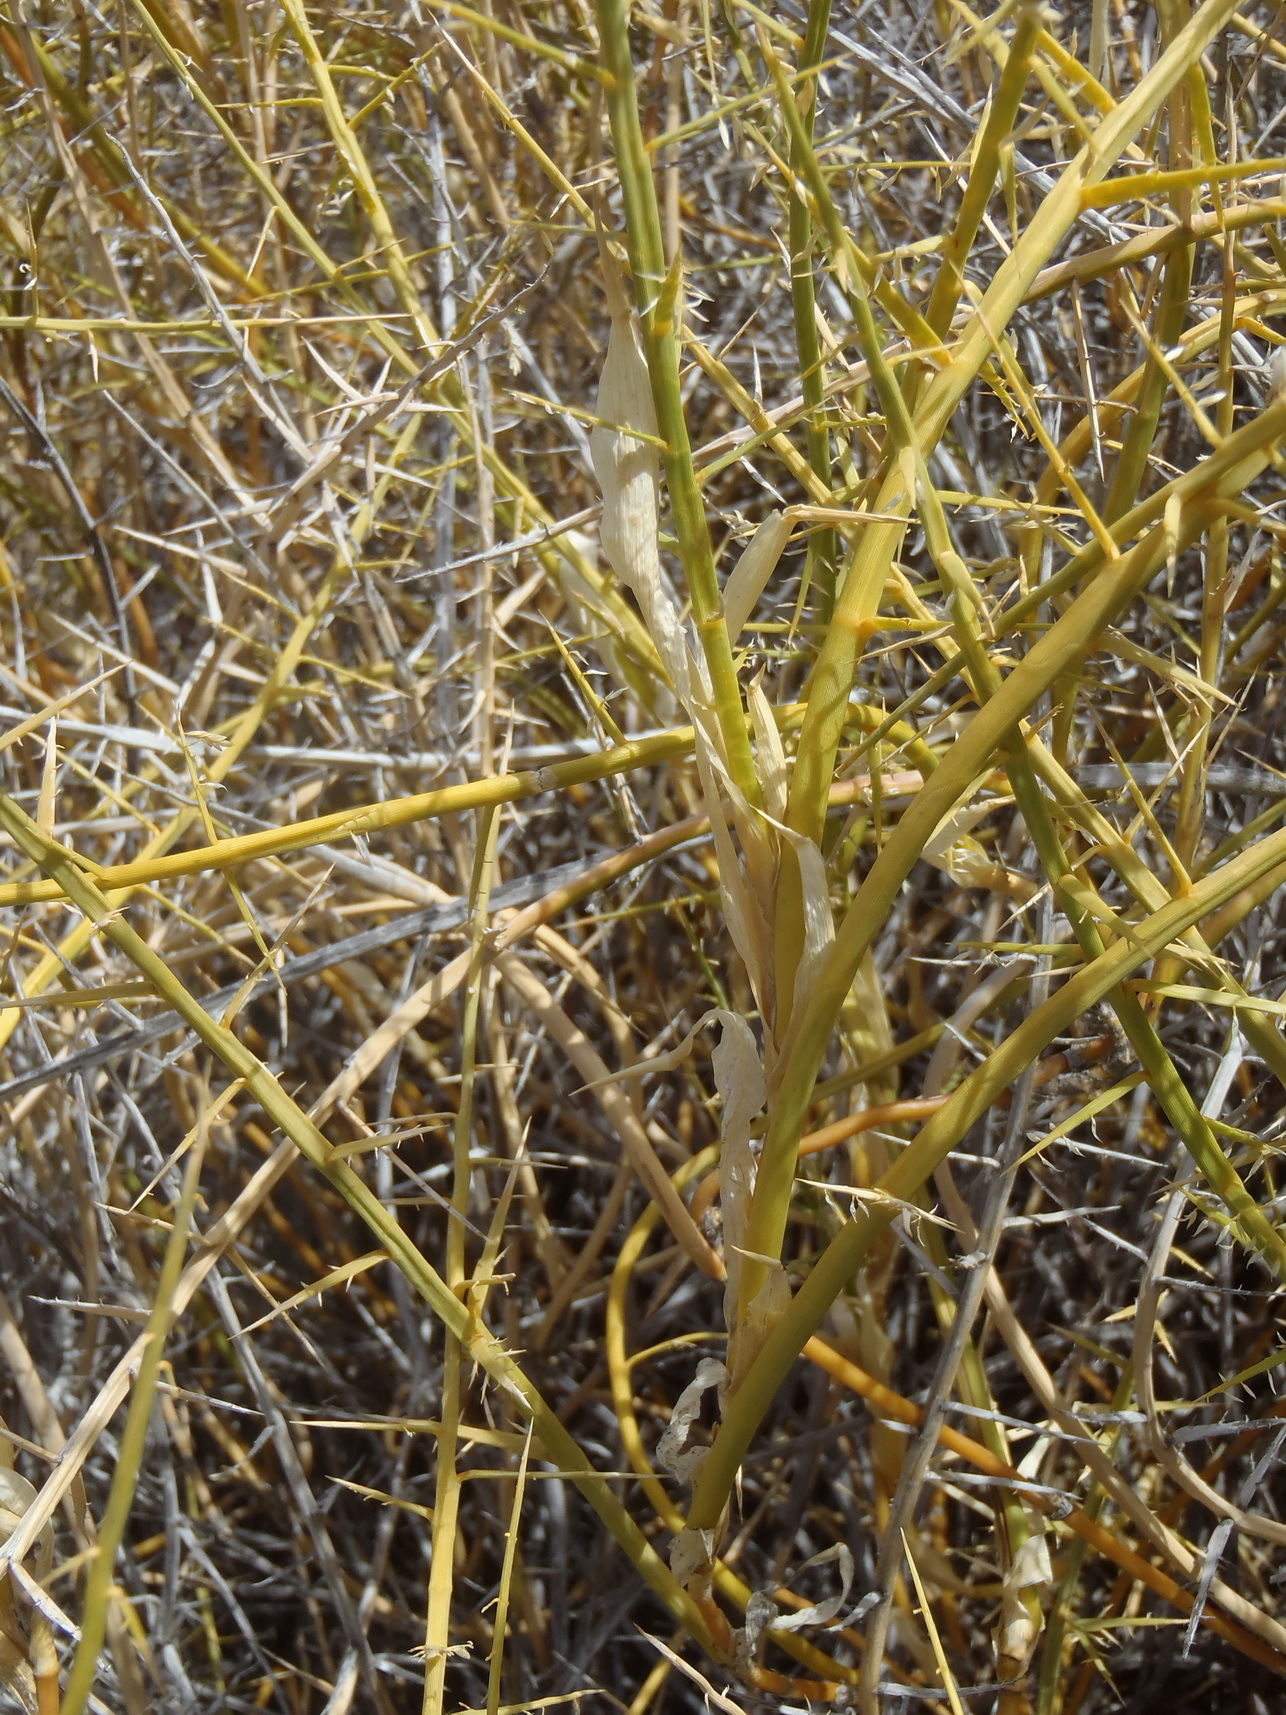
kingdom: Plantae
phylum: Tracheophyta
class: Liliopsida
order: Poales
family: Poaceae
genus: Cladoraphis
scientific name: Cladoraphis spinosa
